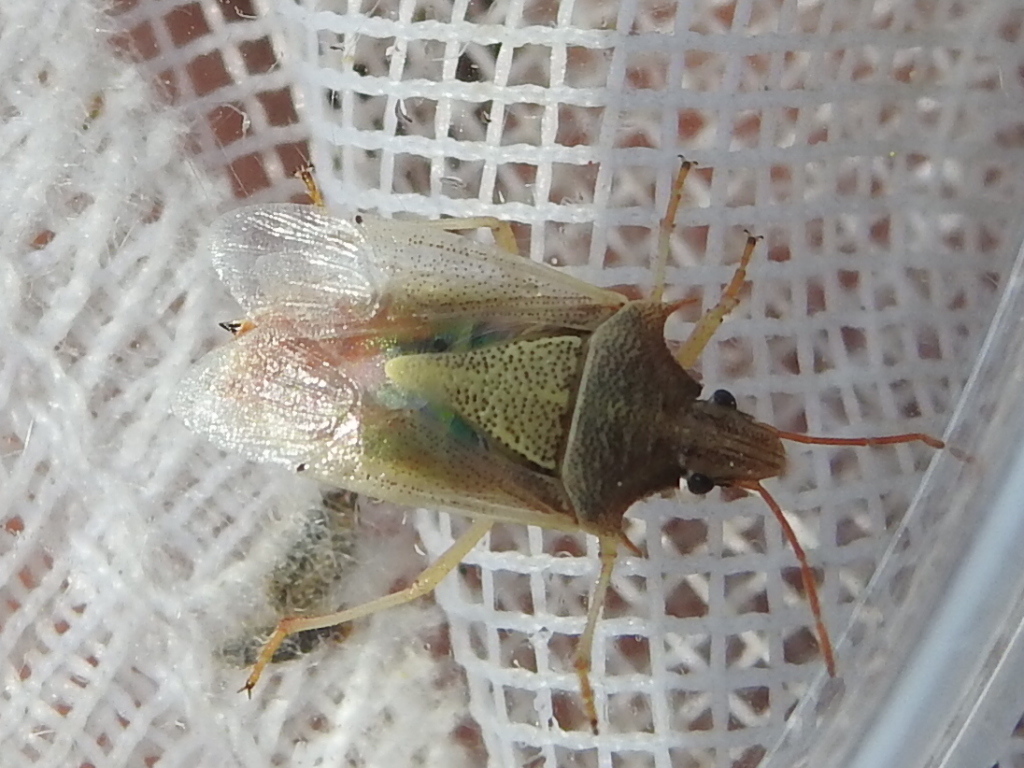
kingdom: Animalia
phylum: Arthropoda
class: Insecta
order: Hemiptera
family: Pentatomidae
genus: Oebalus
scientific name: Oebalus pugnax
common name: Rice stink bug
